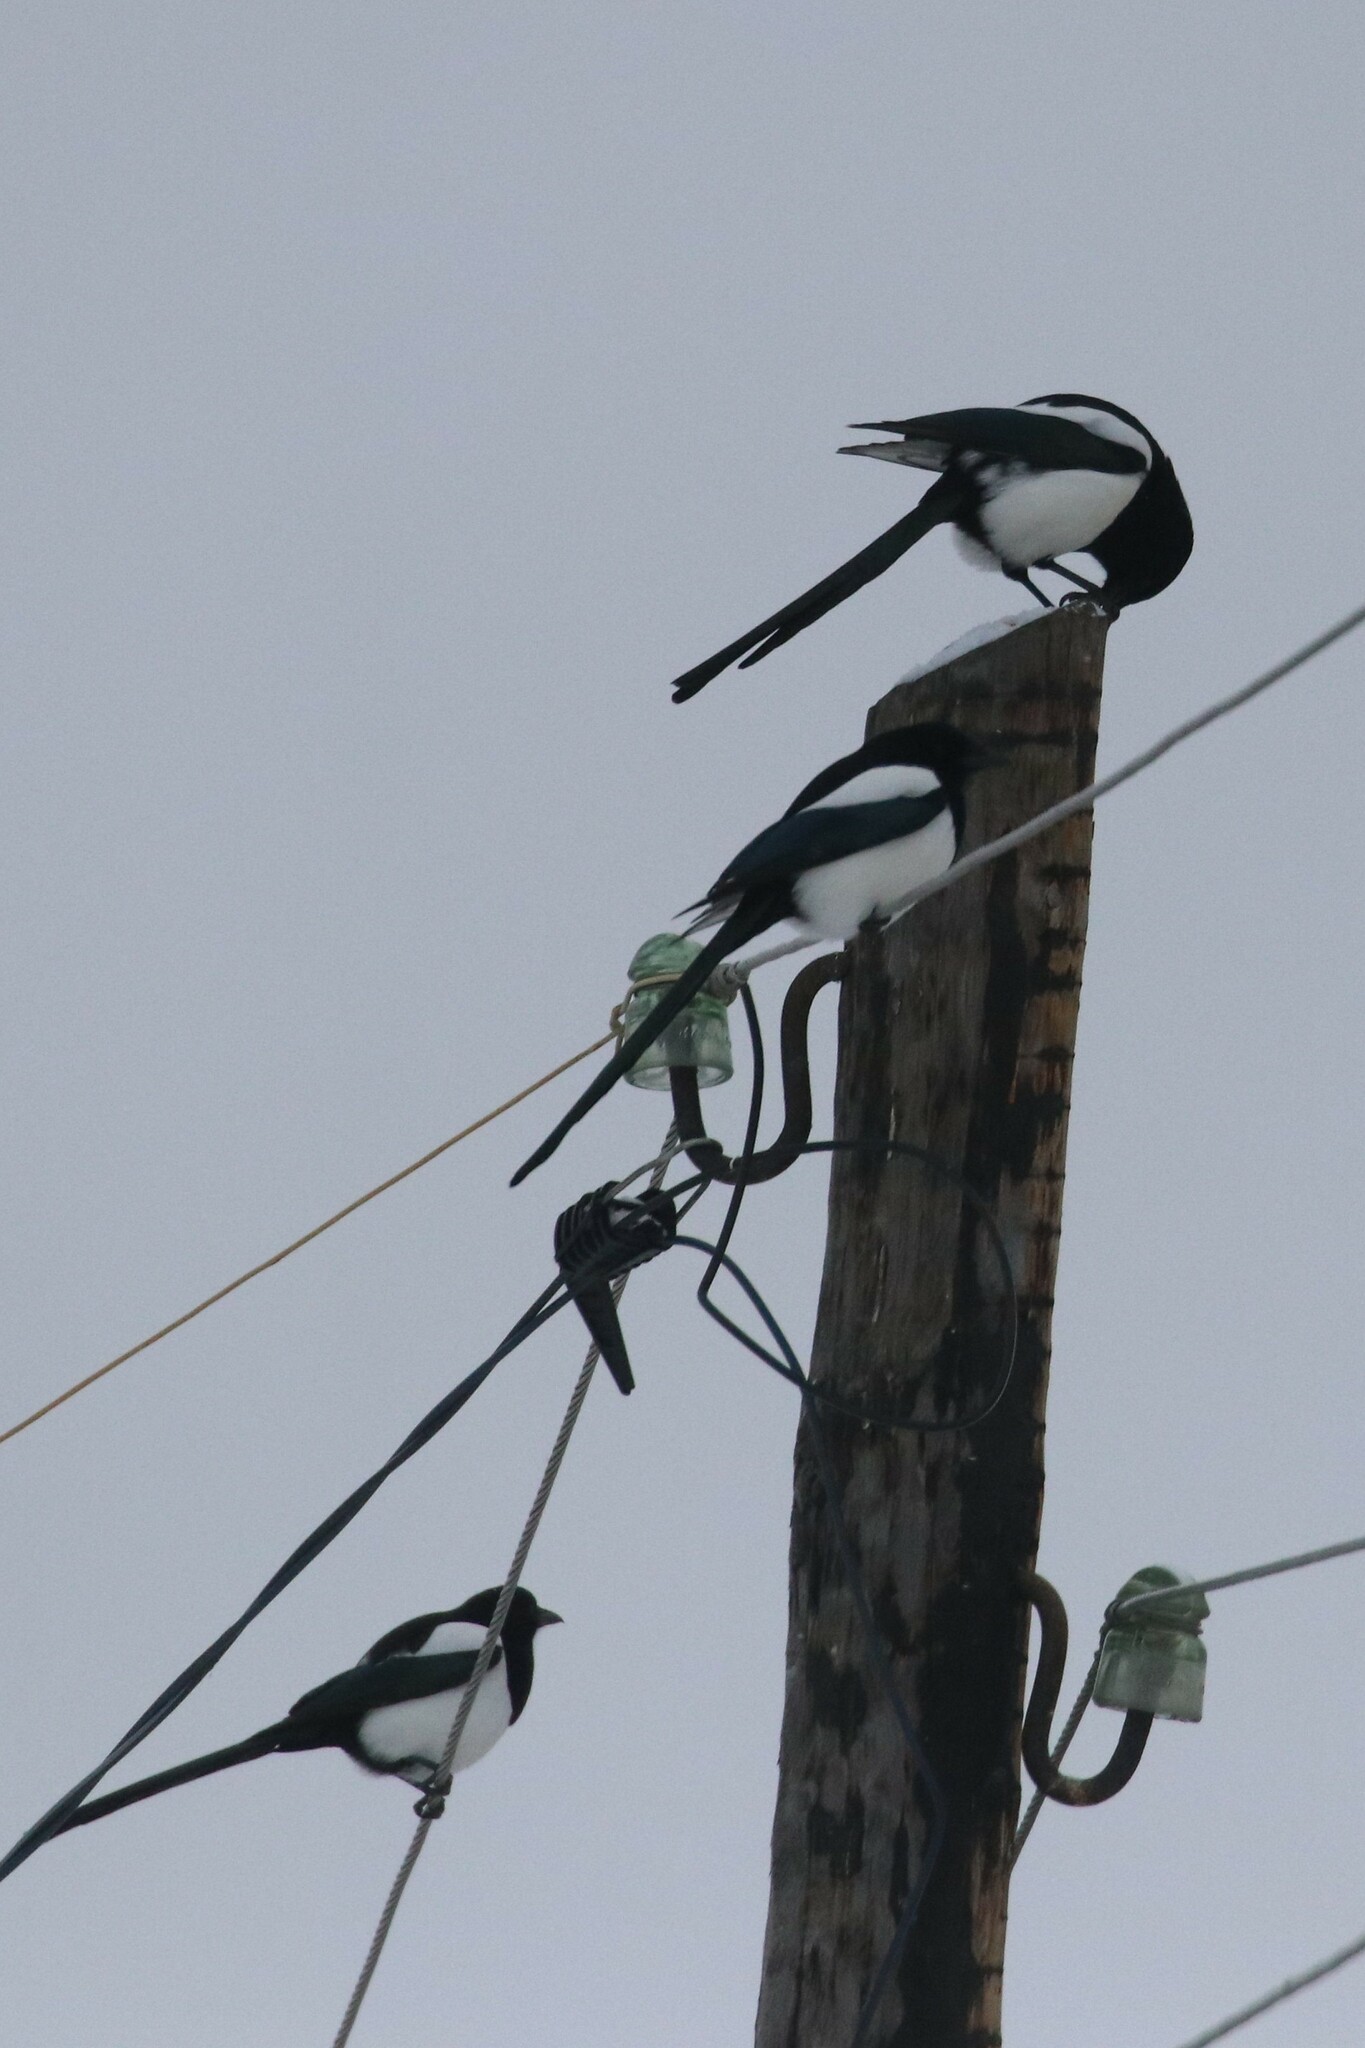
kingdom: Animalia
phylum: Chordata
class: Aves
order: Passeriformes
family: Corvidae
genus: Pica
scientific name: Pica pica
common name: Eurasian magpie
